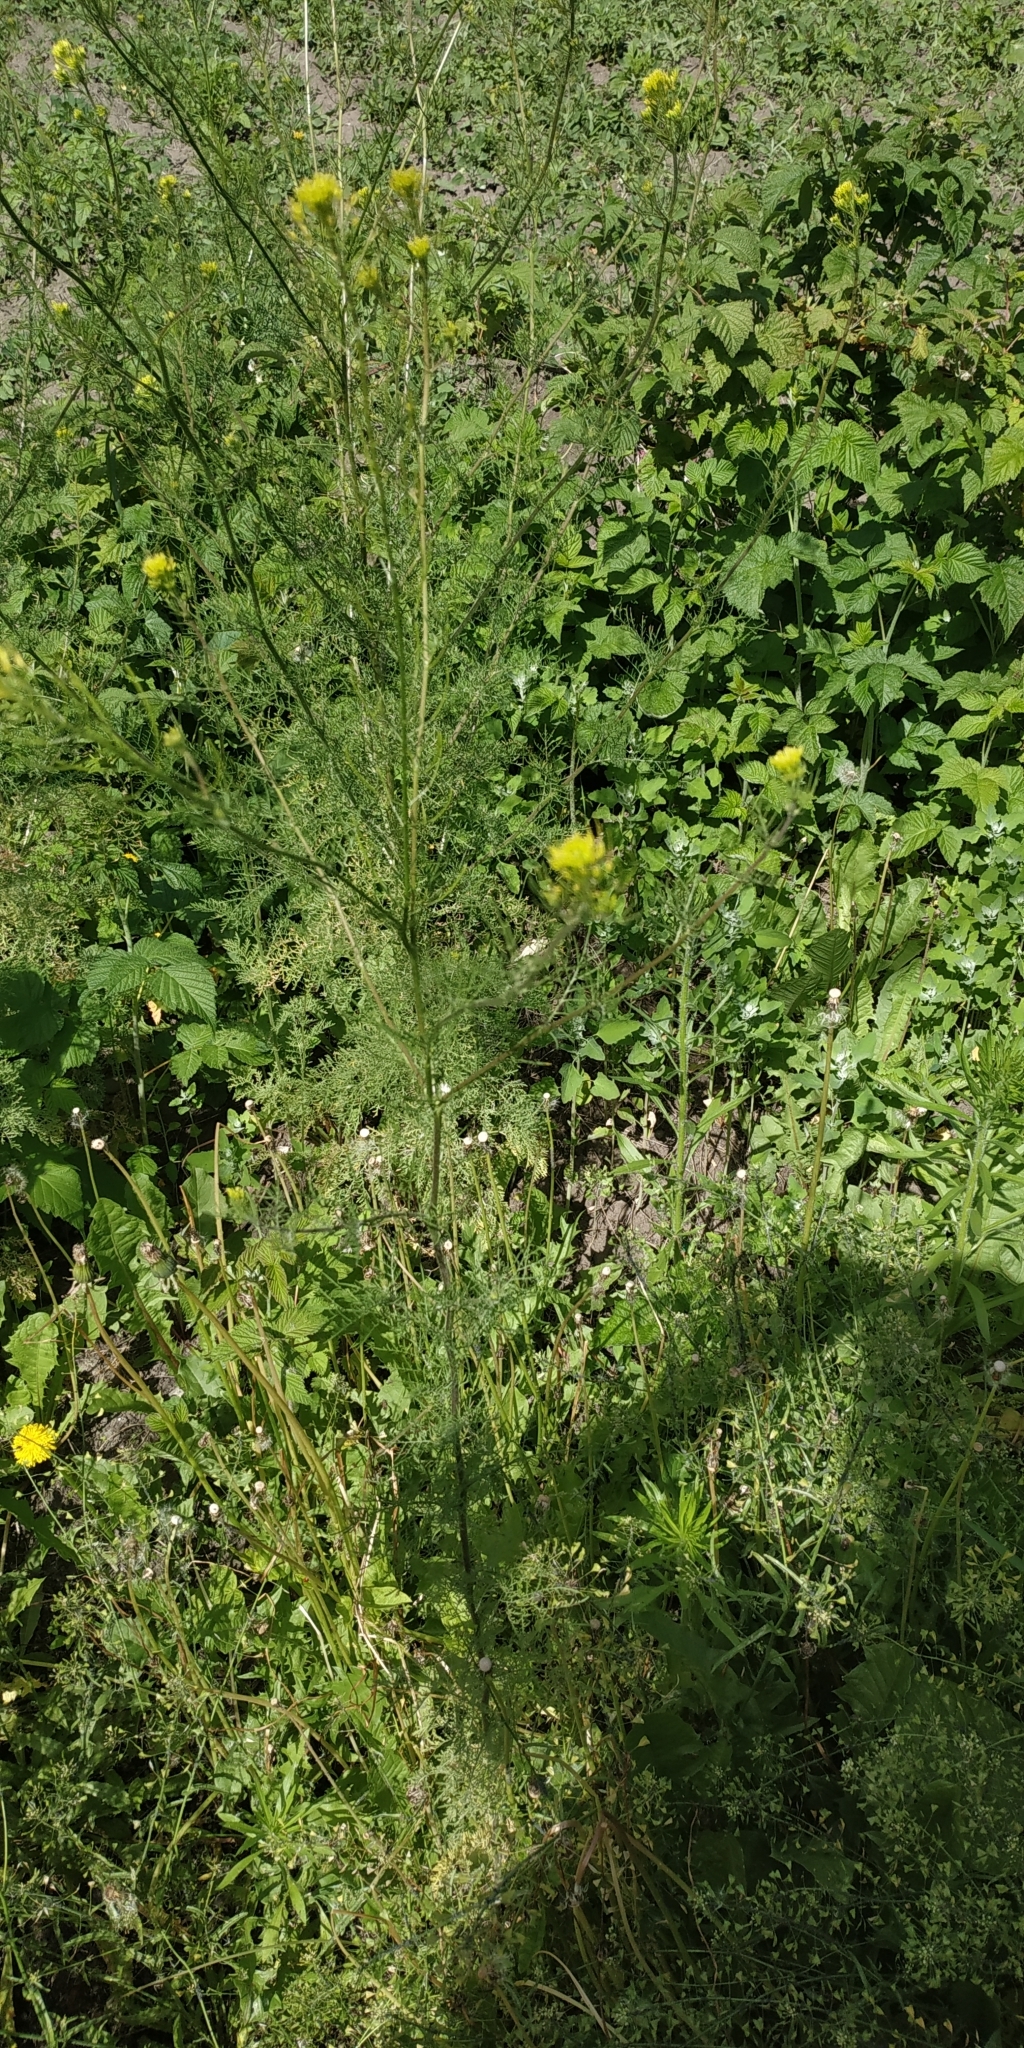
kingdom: Plantae
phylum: Tracheophyta
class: Magnoliopsida
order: Brassicales
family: Brassicaceae
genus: Descurainia
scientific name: Descurainia sophia
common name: Flixweed
